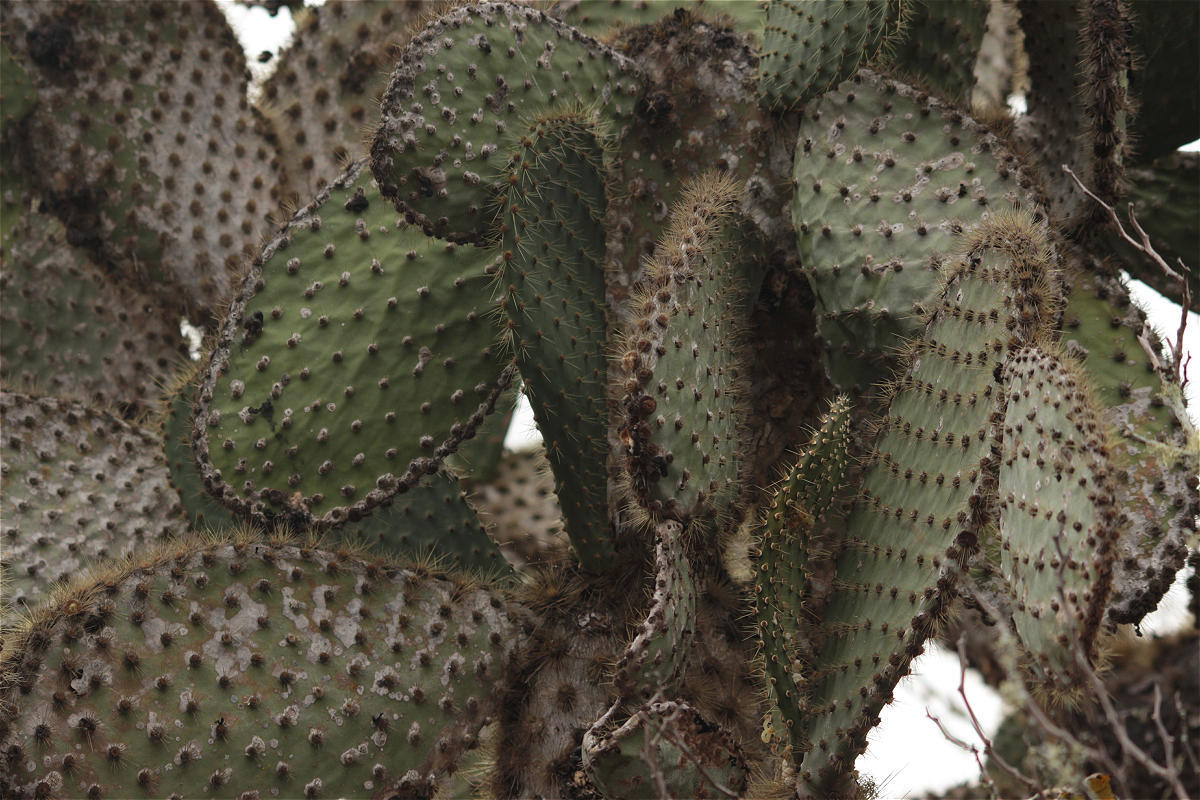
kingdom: Plantae
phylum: Tracheophyta
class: Magnoliopsida
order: Caryophyllales
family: Cactaceae
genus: Opuntia
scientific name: Opuntia galapageia
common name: Galápagos prickly pear
